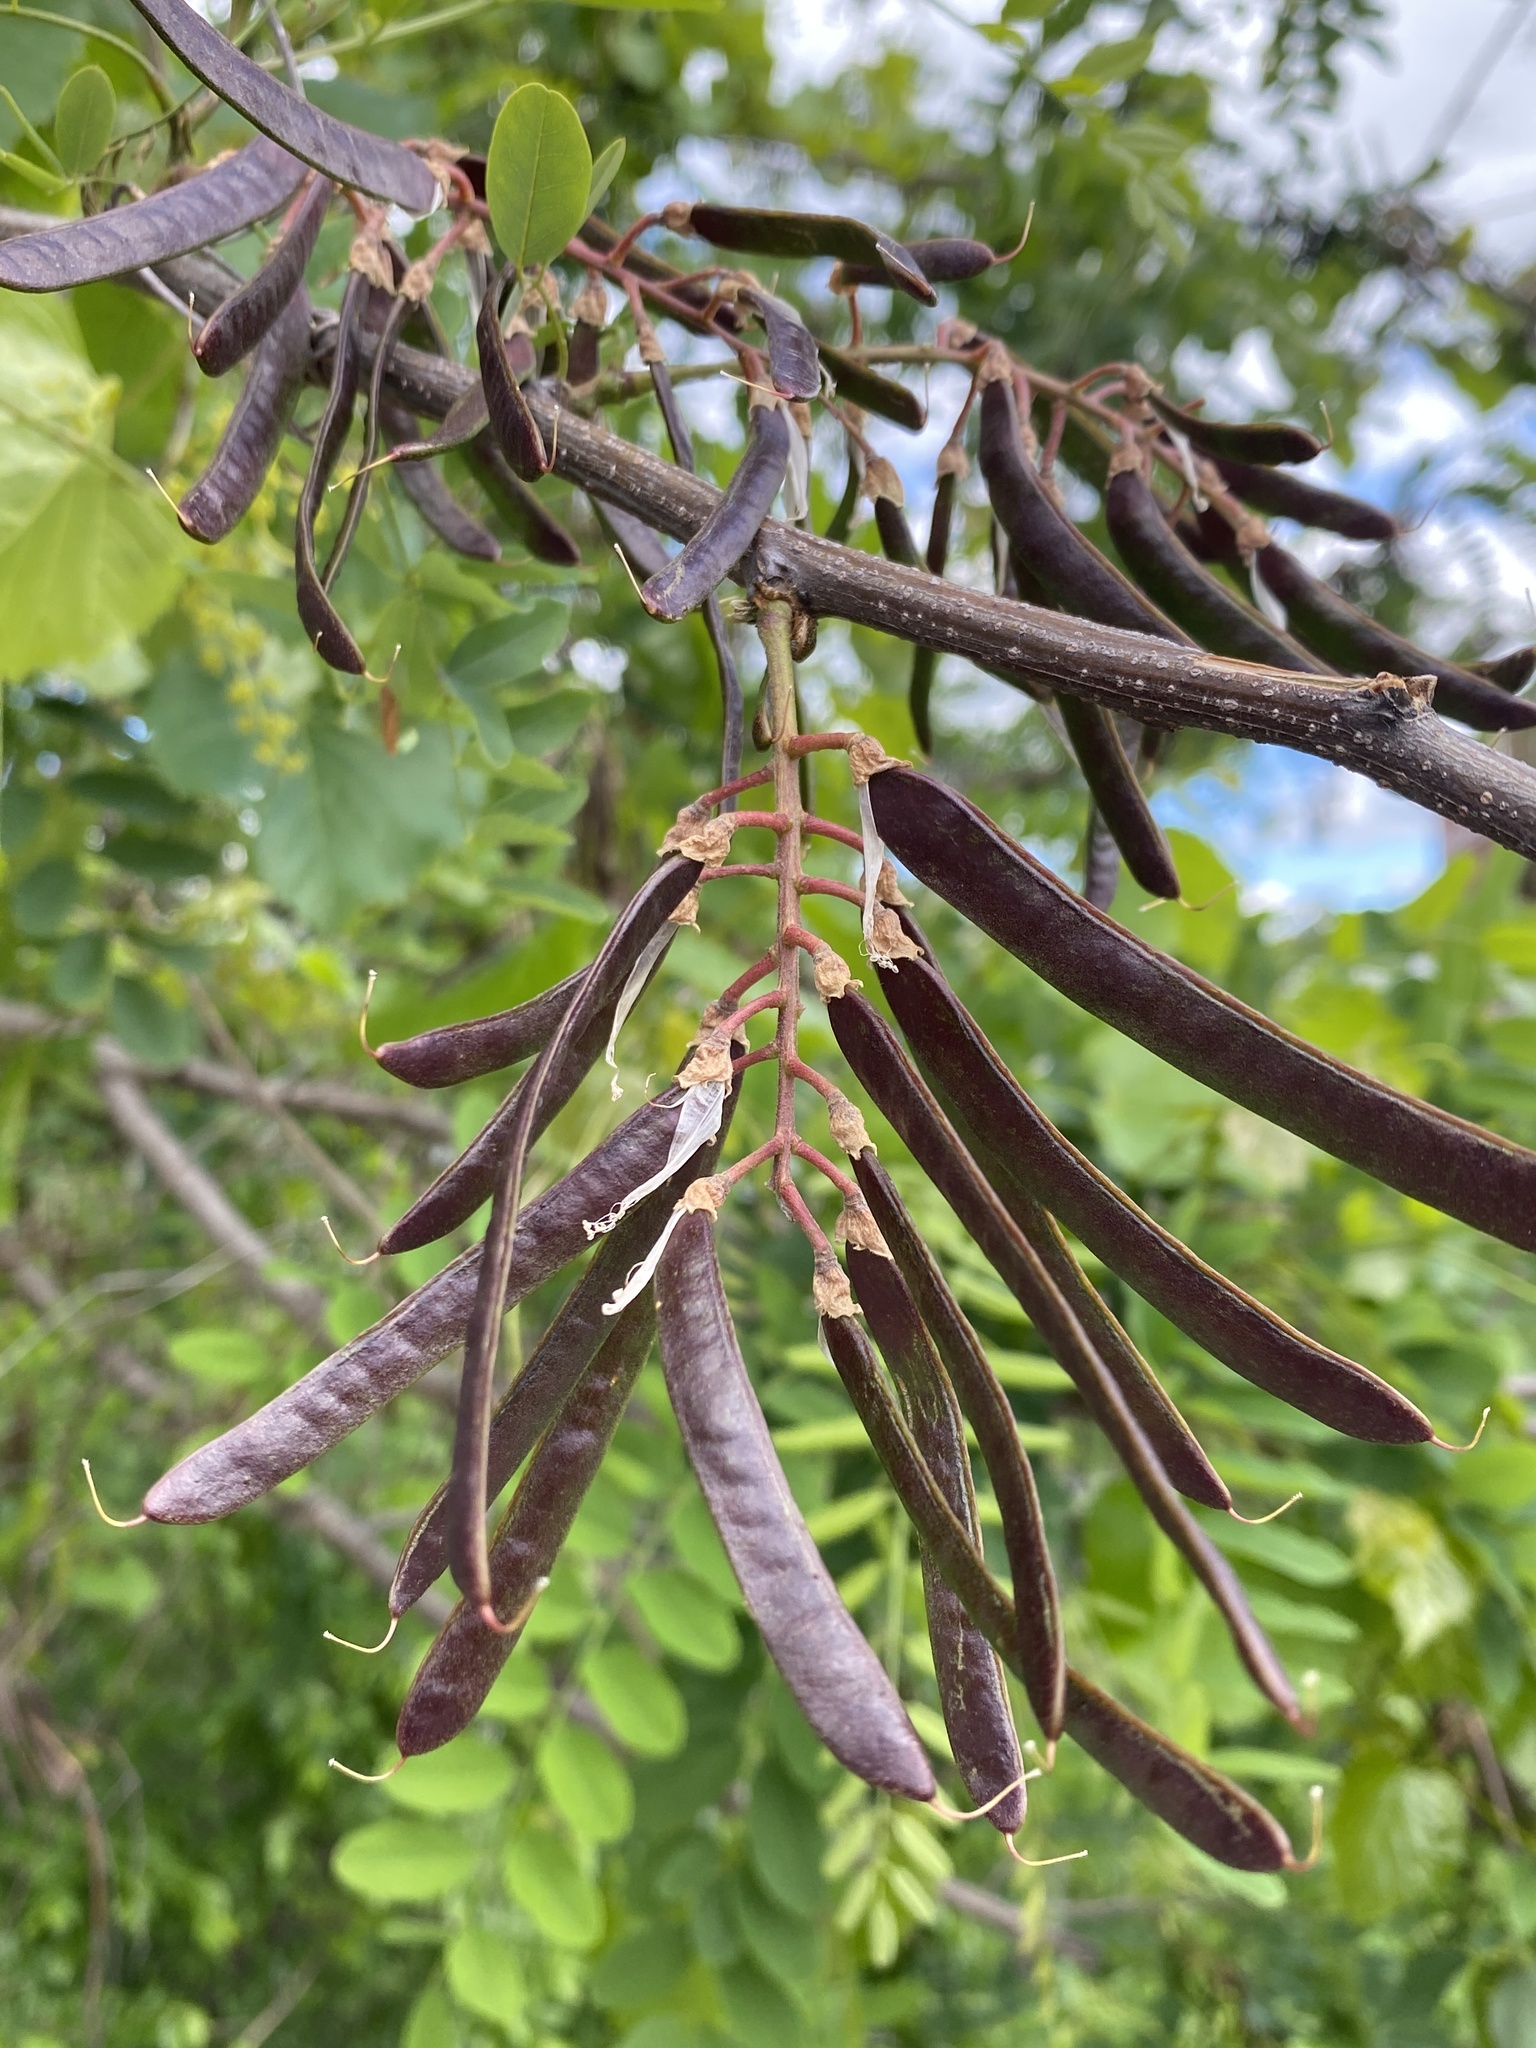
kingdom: Plantae
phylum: Tracheophyta
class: Magnoliopsida
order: Fabales
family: Fabaceae
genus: Robinia
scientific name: Robinia pseudoacacia
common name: Black locust
